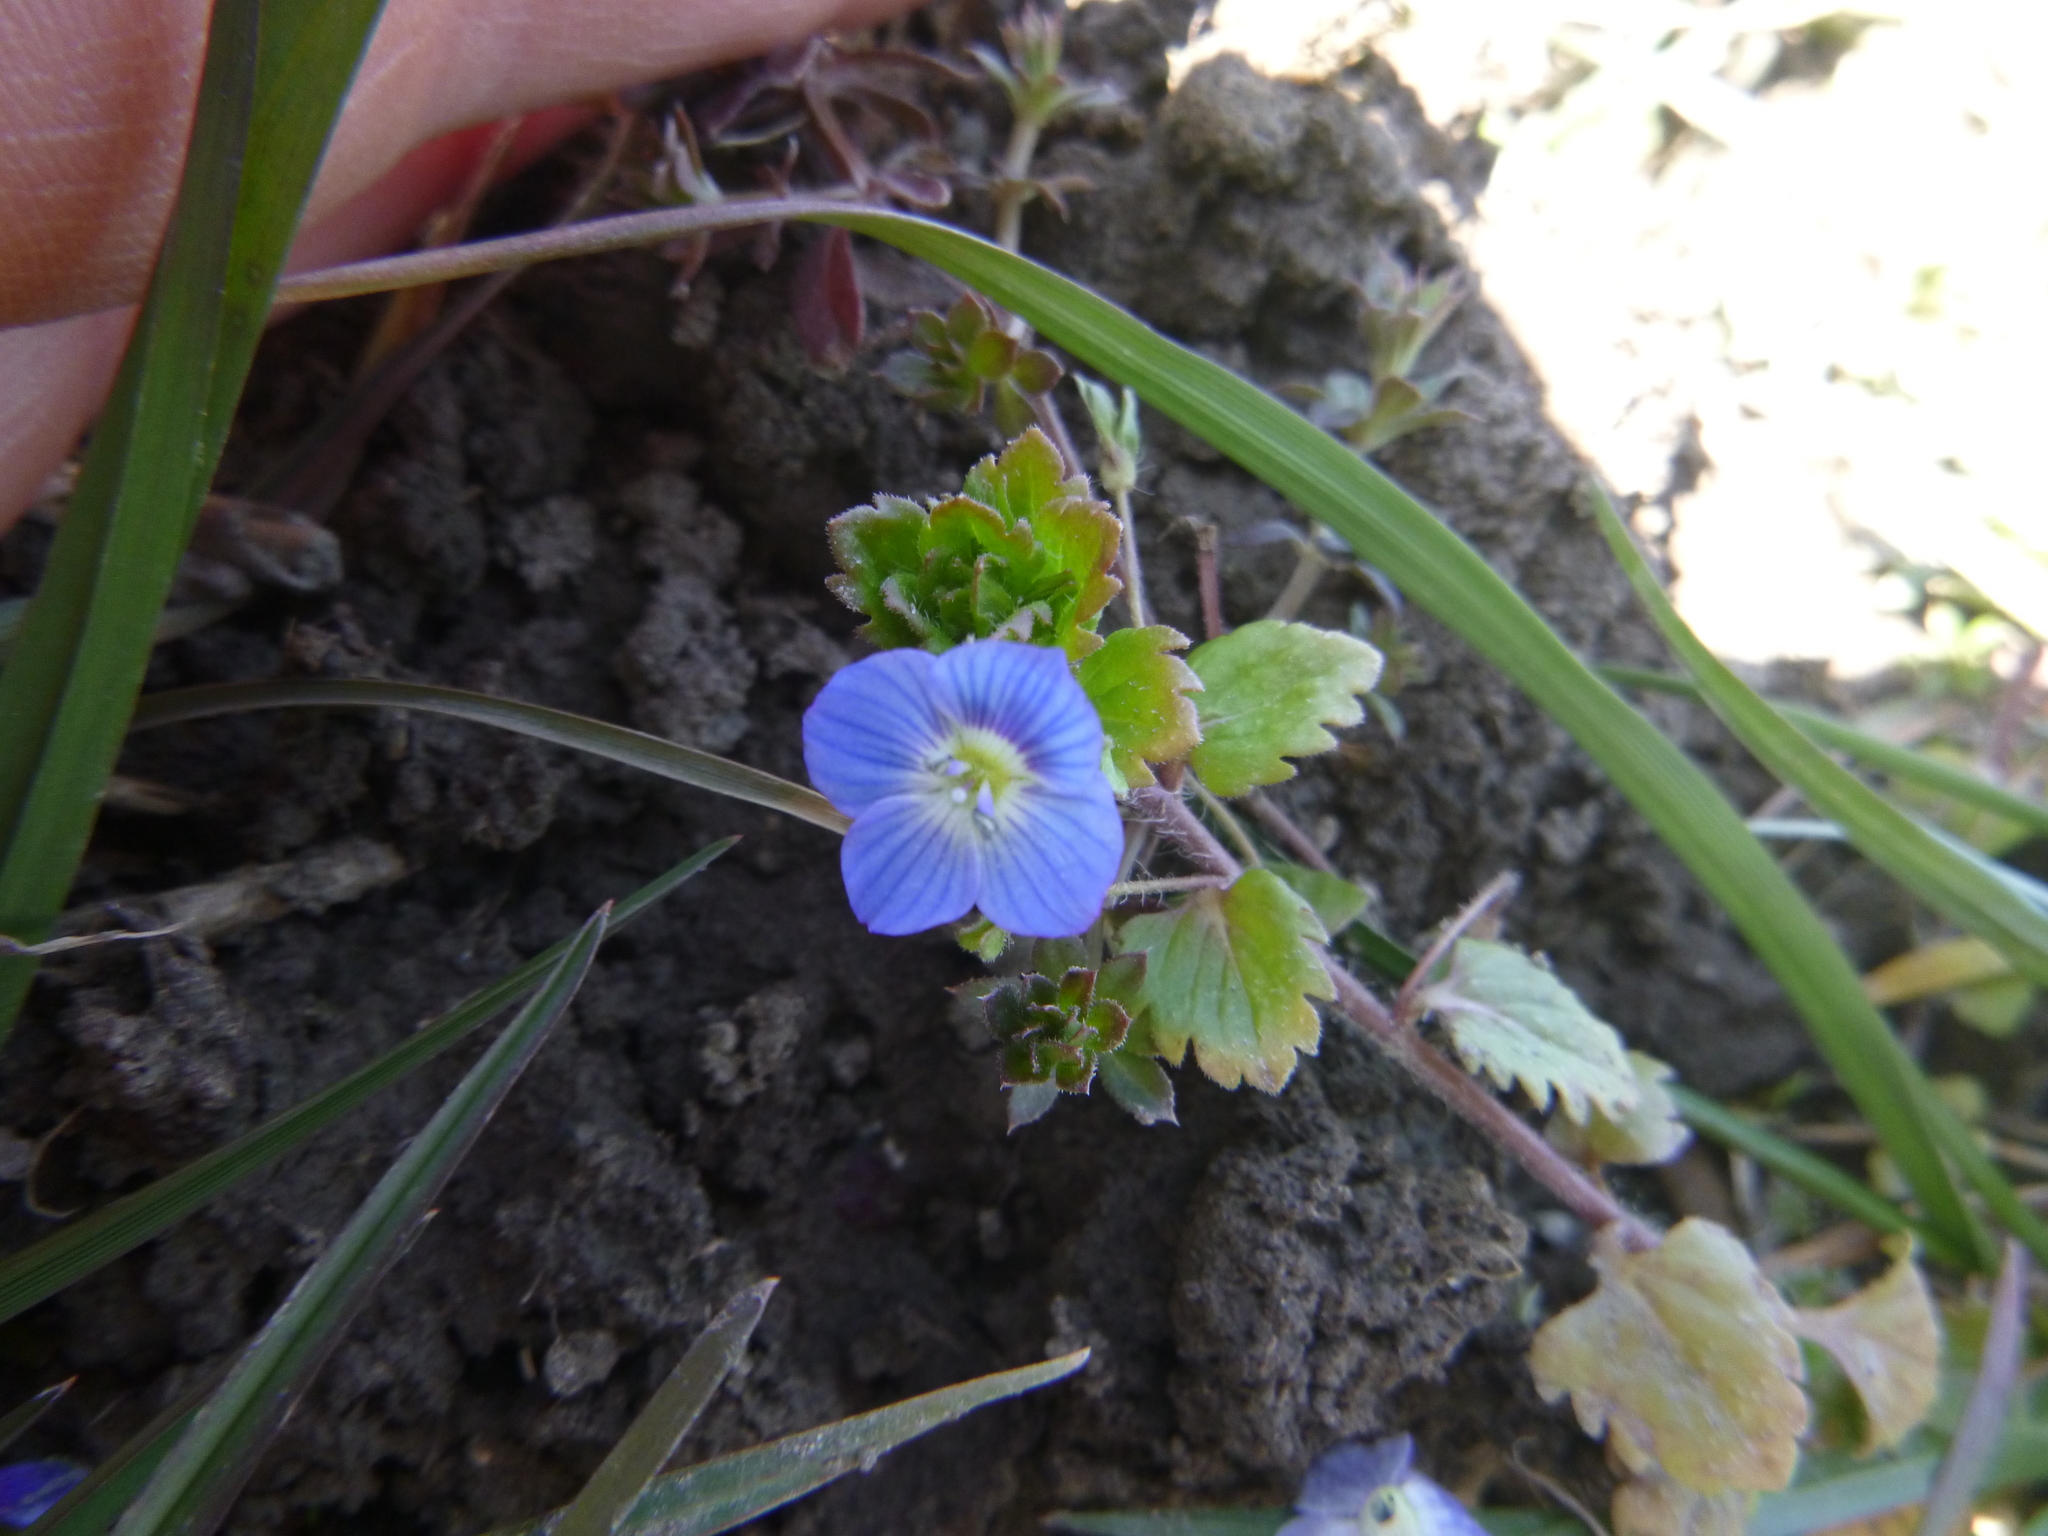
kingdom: Plantae
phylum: Tracheophyta
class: Magnoliopsida
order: Lamiales
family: Plantaginaceae
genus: Veronica
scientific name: Veronica persica
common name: Common field-speedwell
